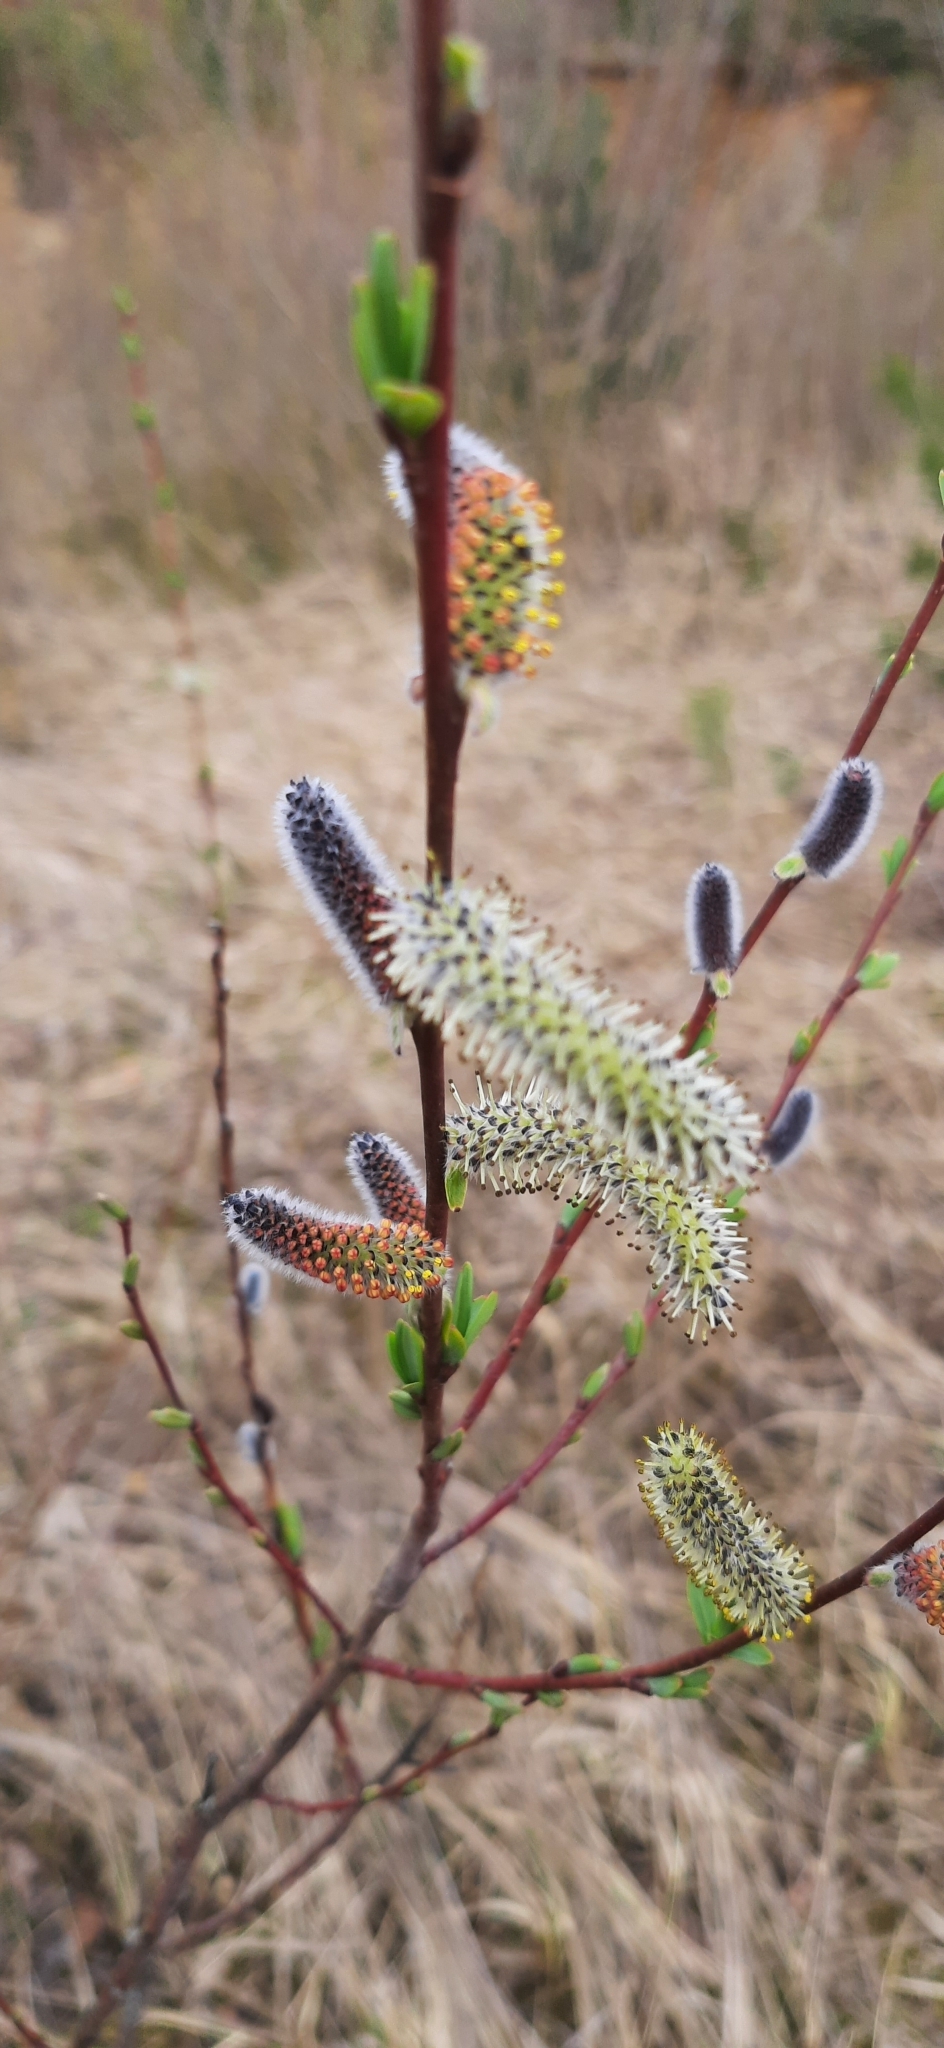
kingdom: Plantae
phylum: Tracheophyta
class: Magnoliopsida
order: Malpighiales
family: Salicaceae
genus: Salix
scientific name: Salix purpurea
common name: Purple willow
